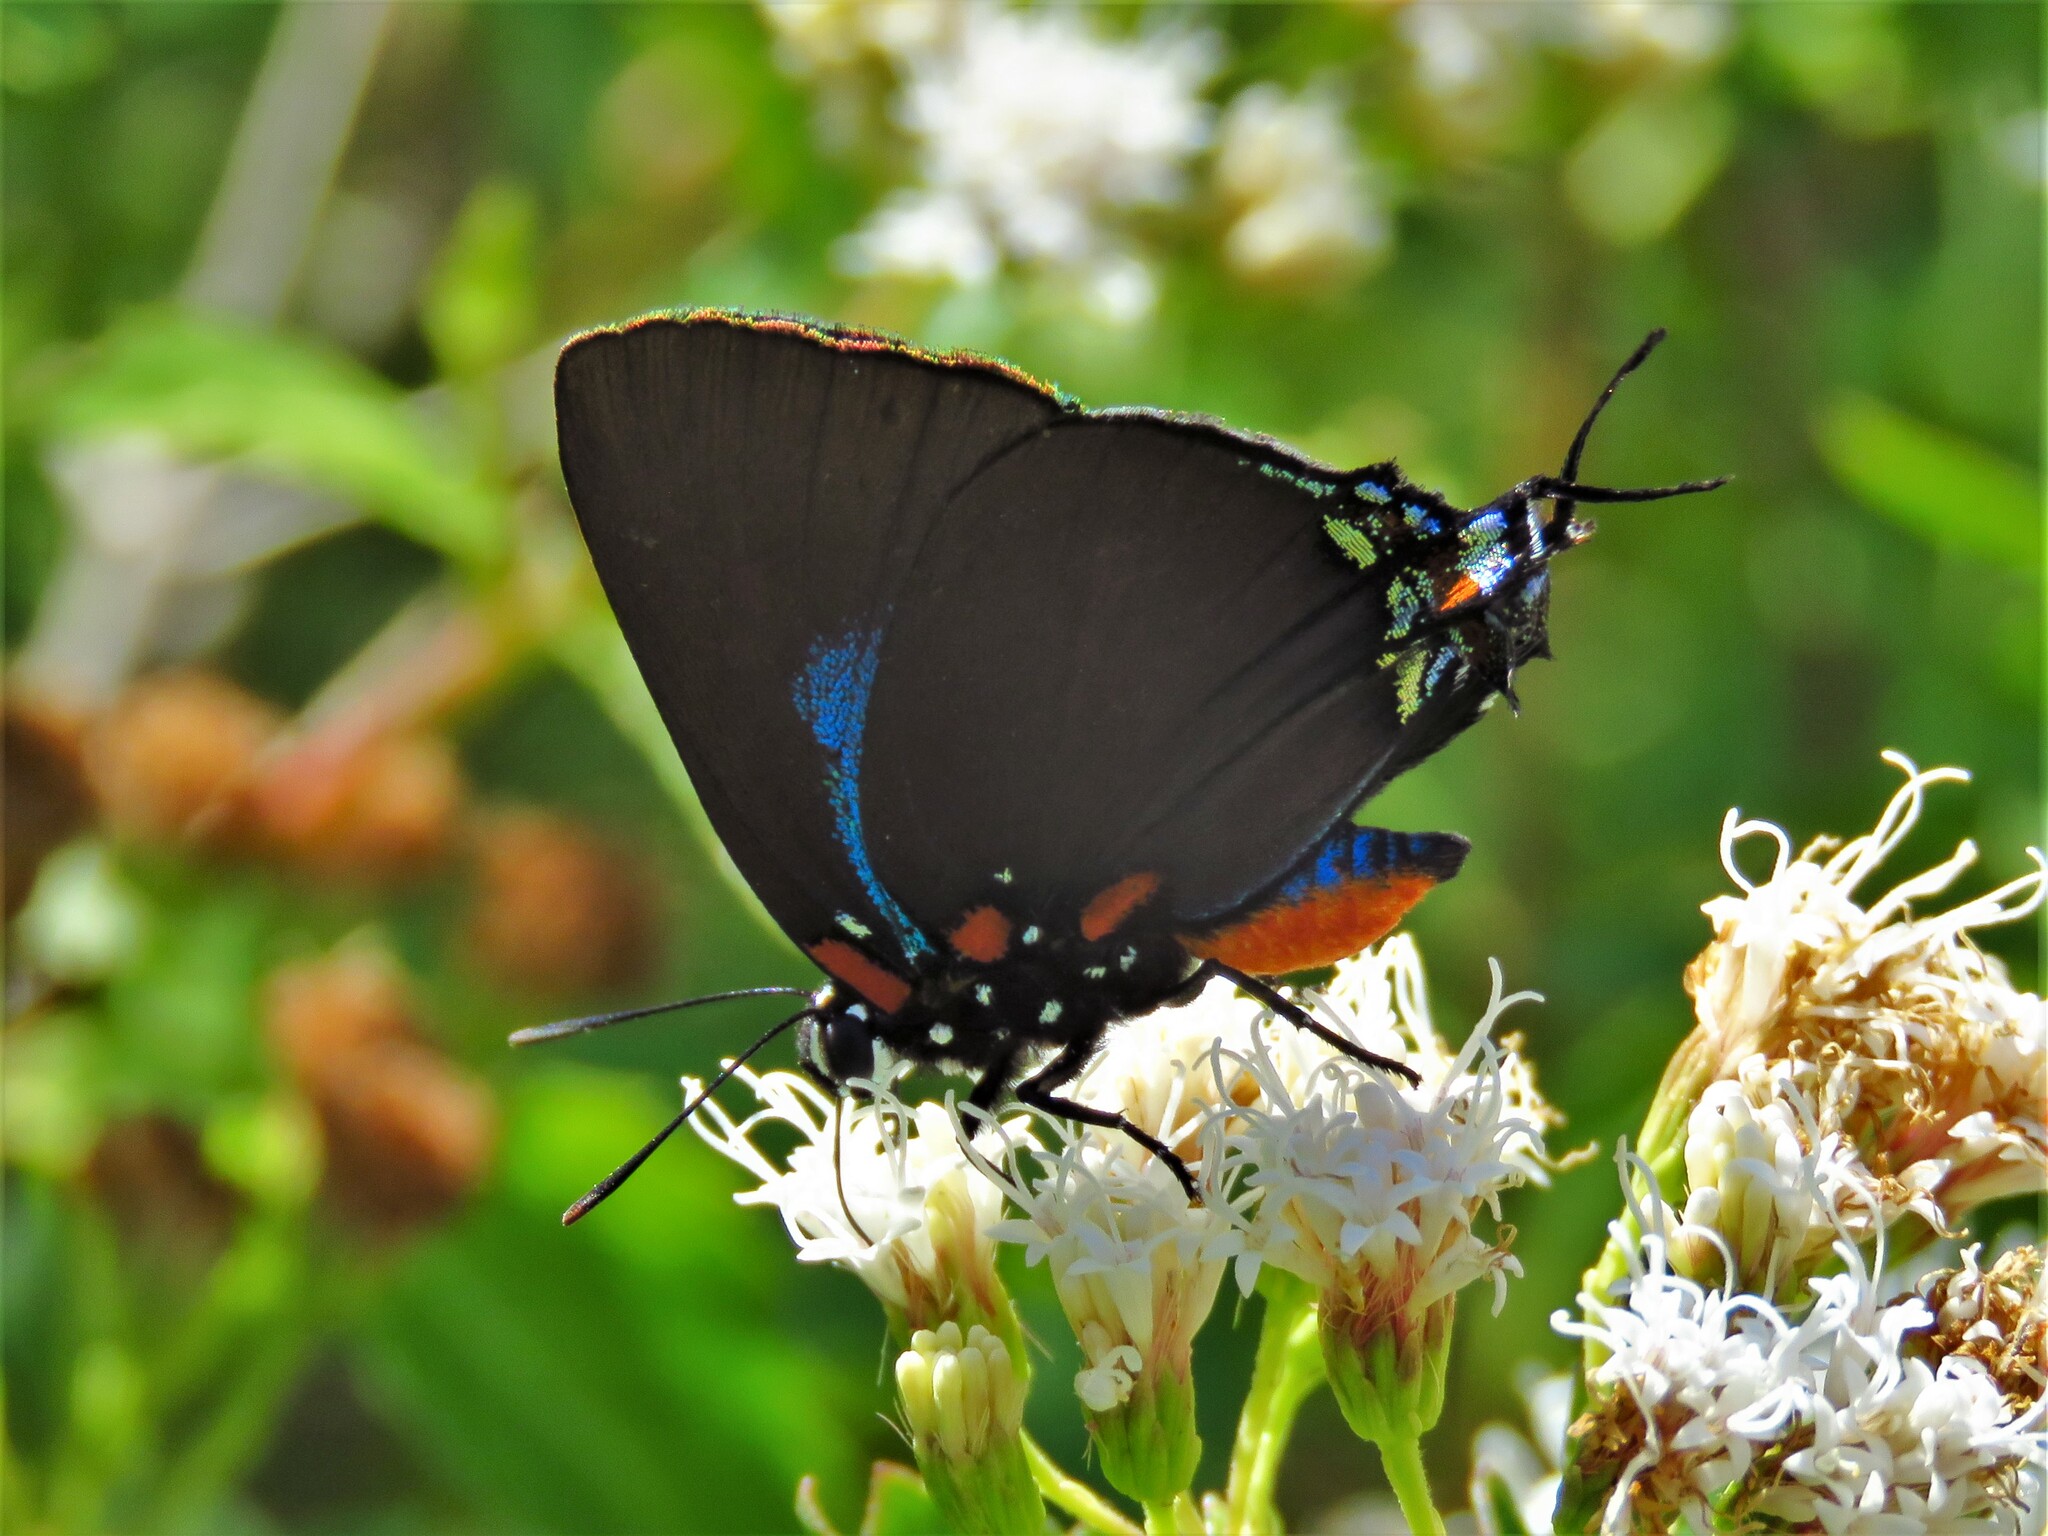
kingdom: Animalia
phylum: Arthropoda
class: Insecta
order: Lepidoptera
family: Lycaenidae
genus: Atlides
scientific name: Atlides halesus
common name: Great purple hairstreak
